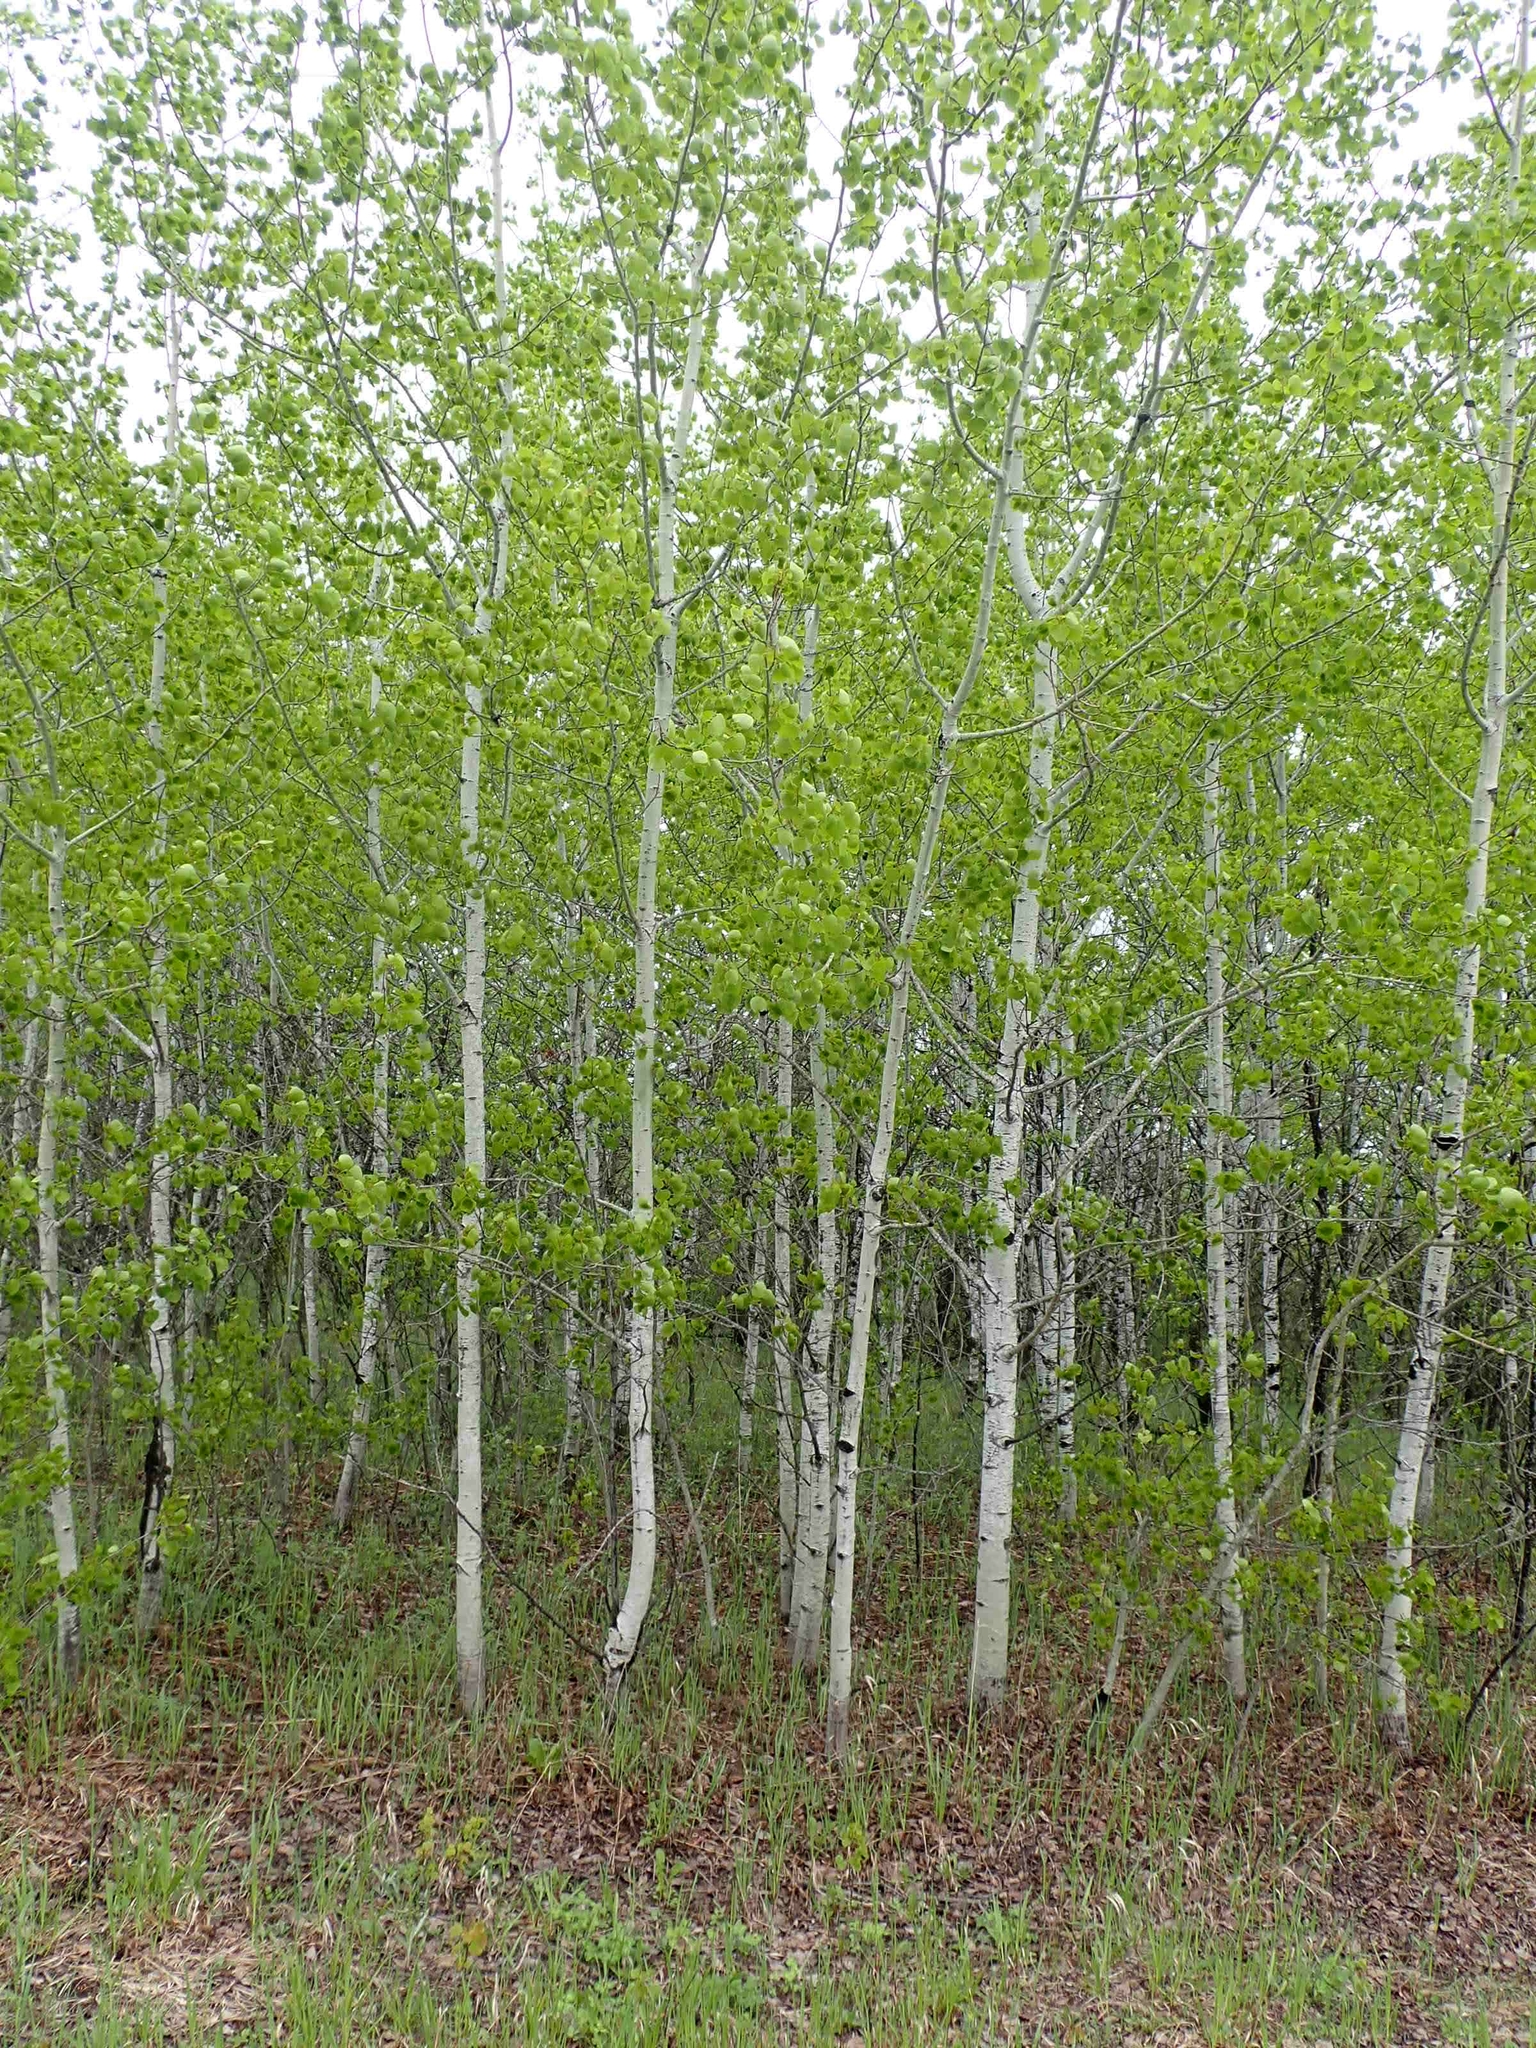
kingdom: Plantae
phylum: Tracheophyta
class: Magnoliopsida
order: Malpighiales
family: Salicaceae
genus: Populus
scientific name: Populus tremuloides
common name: Quaking aspen
